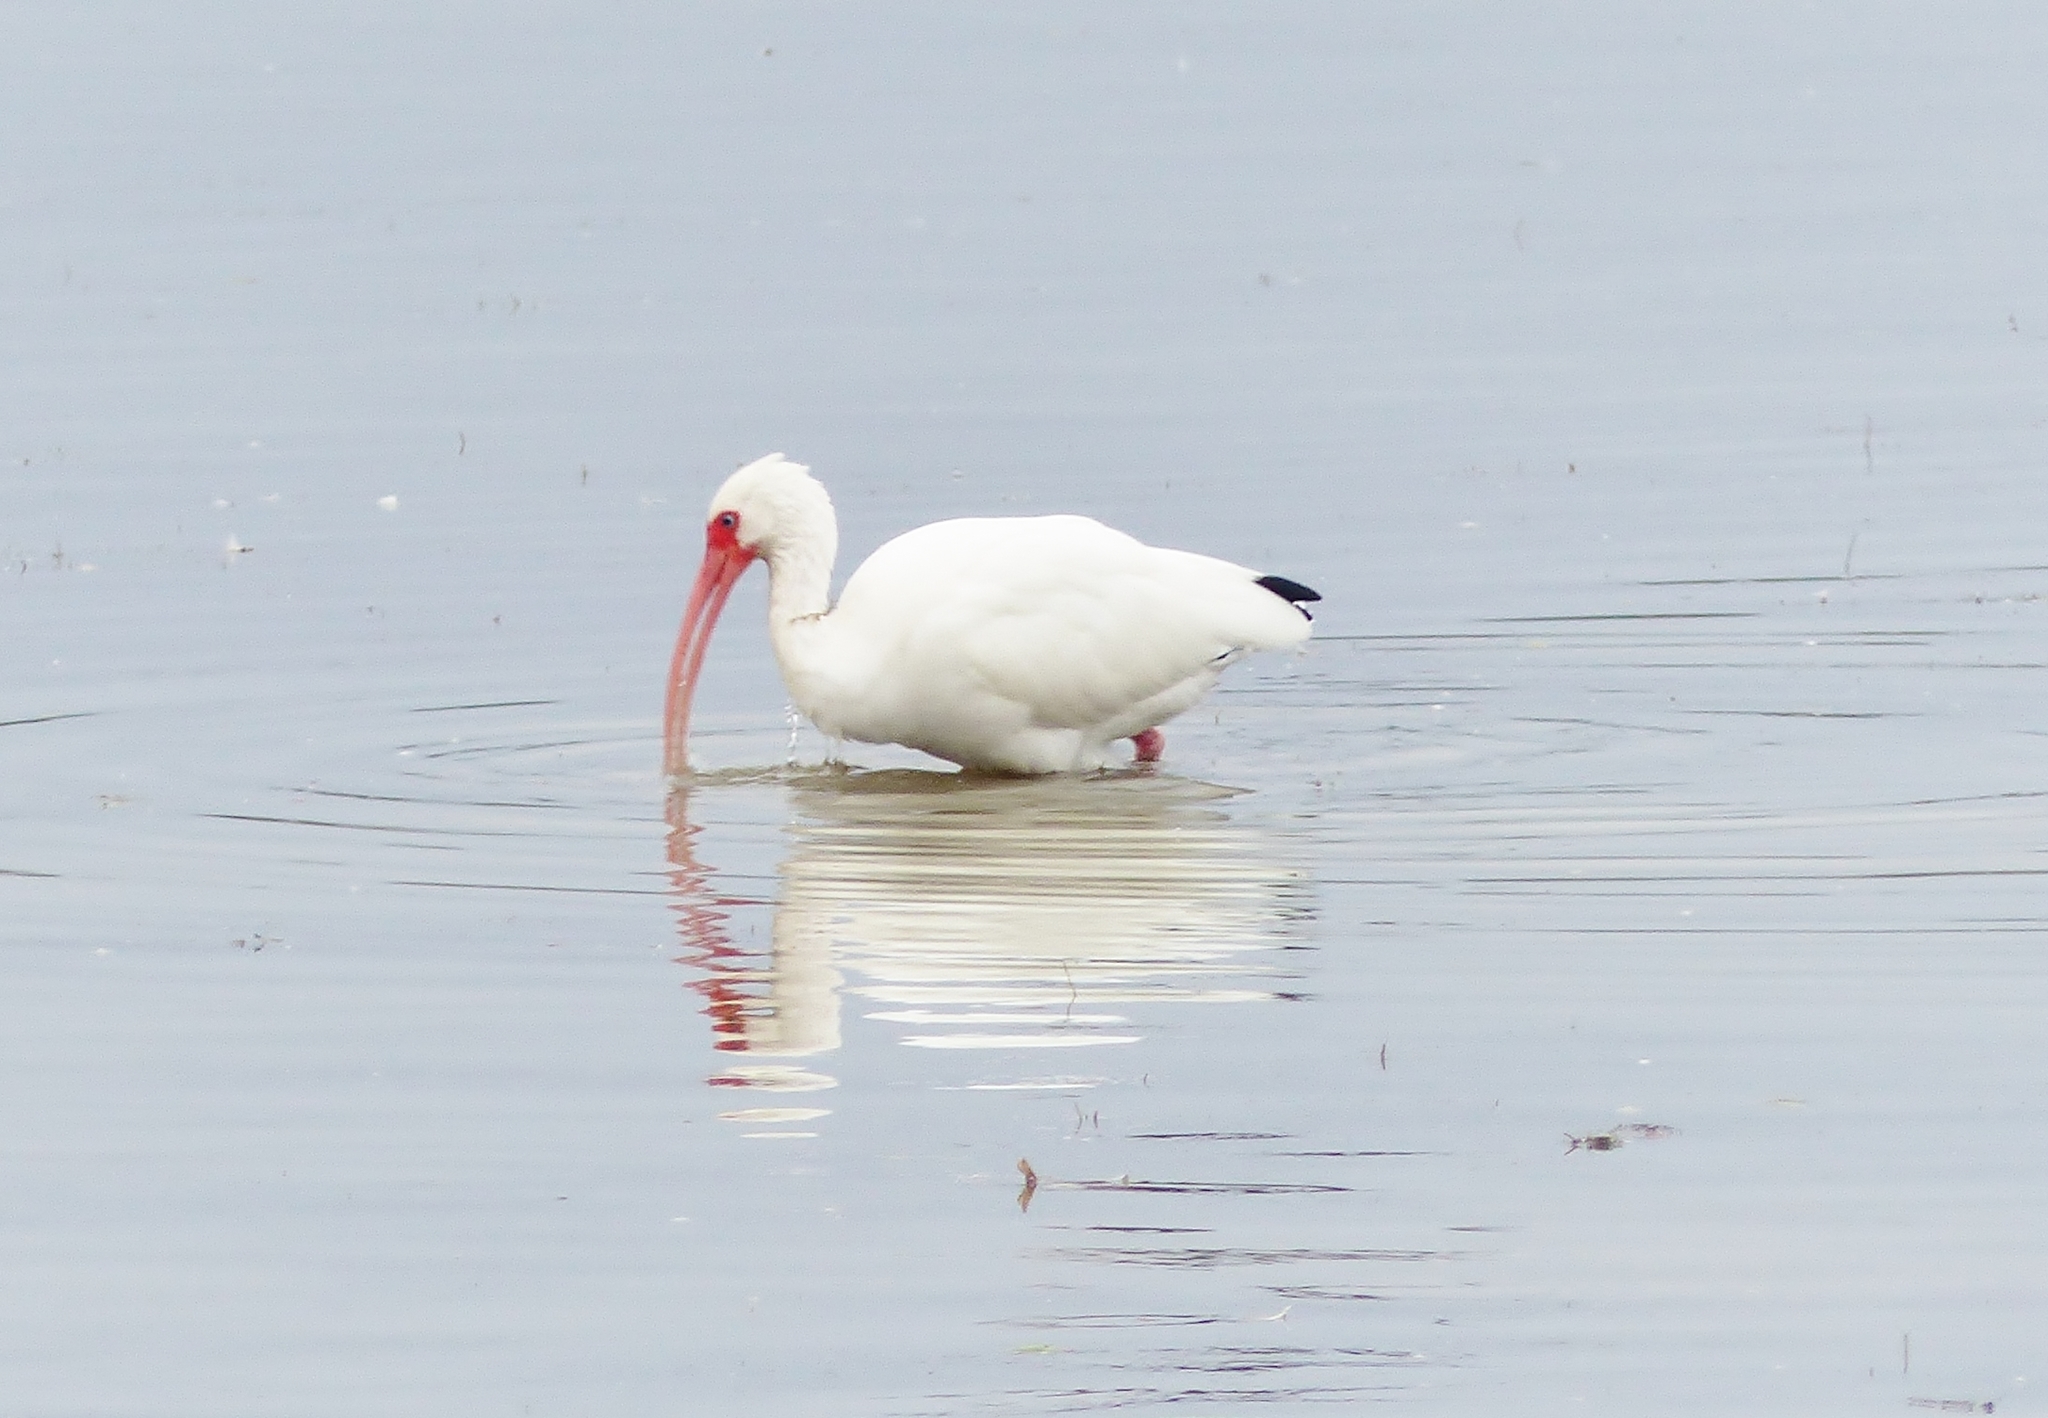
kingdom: Animalia
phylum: Chordata
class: Aves
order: Pelecaniformes
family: Threskiornithidae
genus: Eudocimus
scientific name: Eudocimus albus
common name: White ibis
